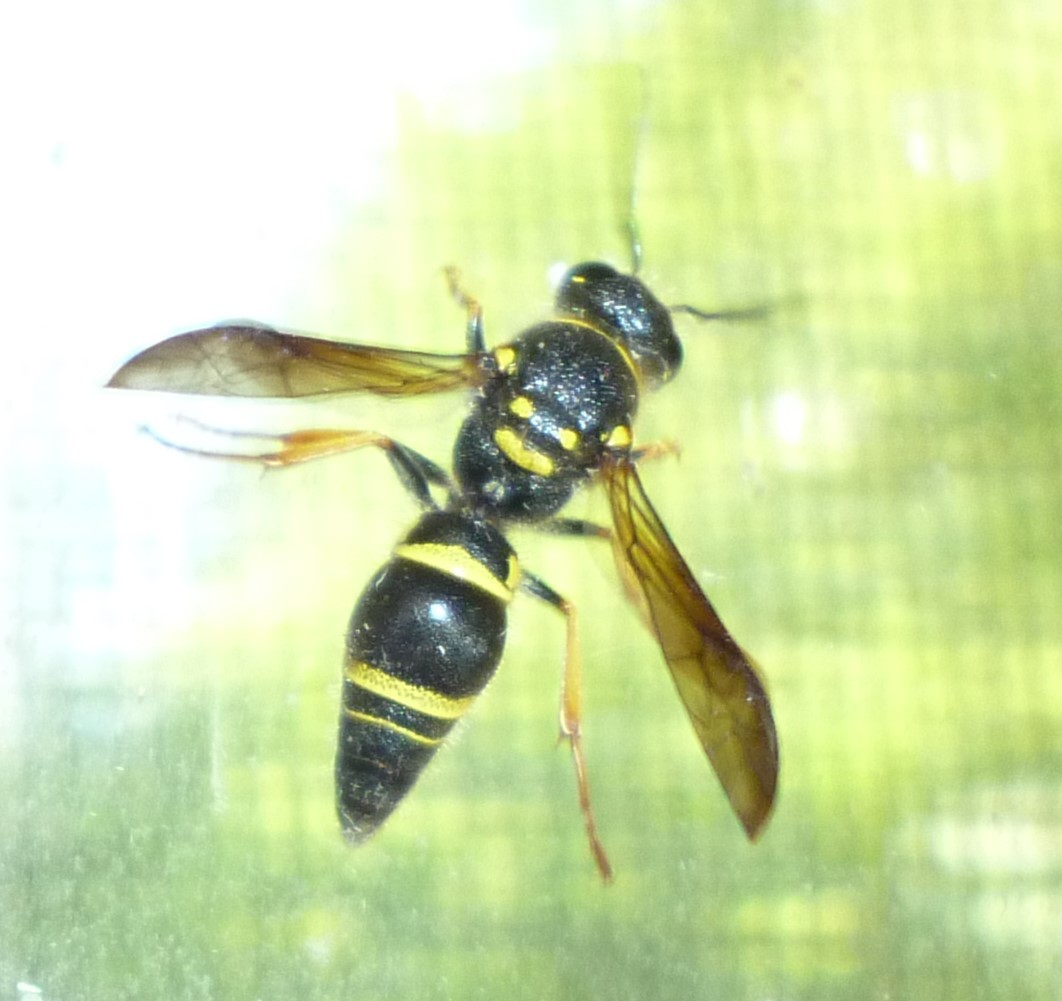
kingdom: Animalia
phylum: Arthropoda
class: Insecta
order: Hymenoptera
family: Vespidae
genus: Ancistrocerus
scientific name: Ancistrocerus campestris
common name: Smiling mason wasp
